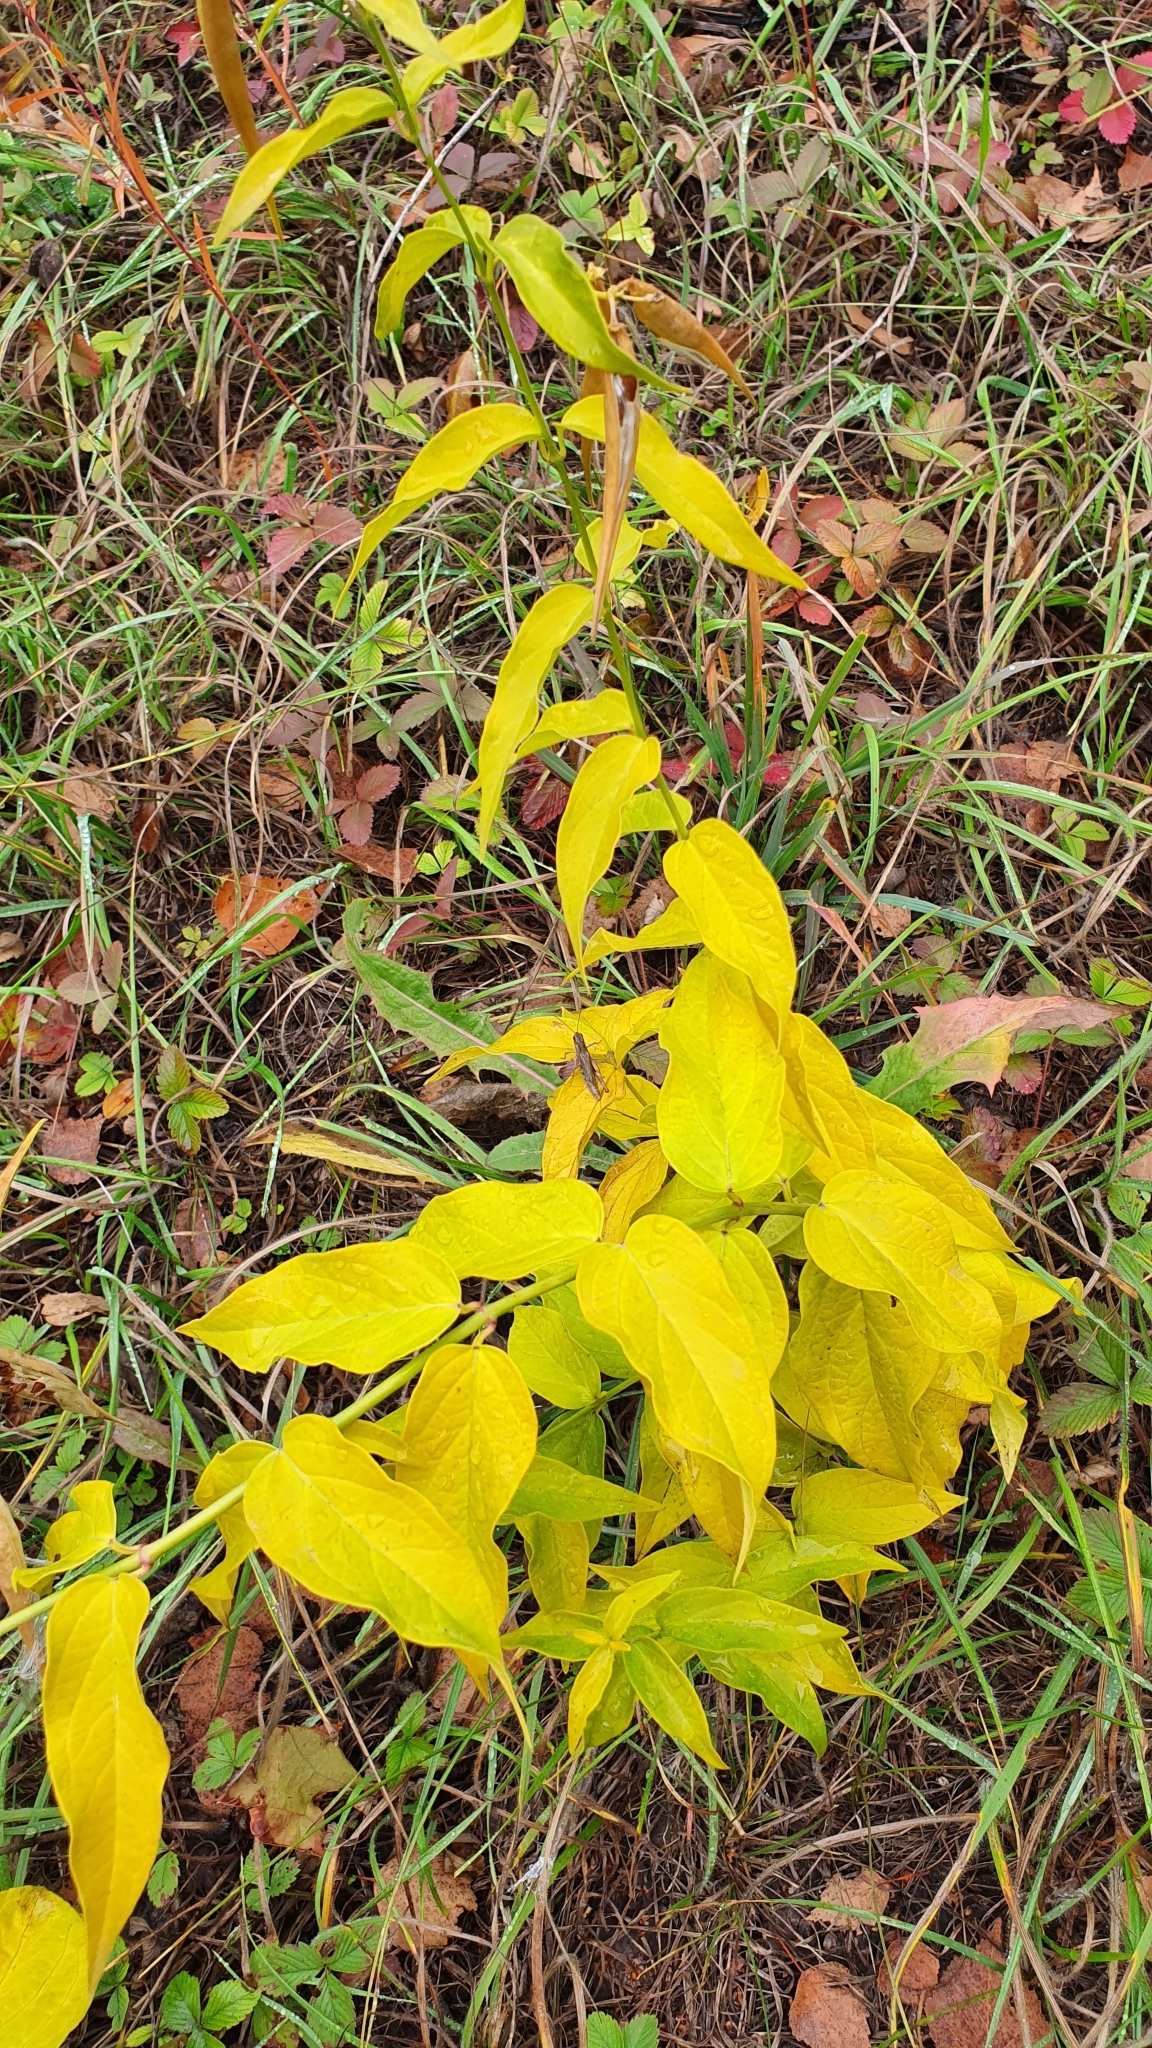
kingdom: Plantae
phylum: Tracheophyta
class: Magnoliopsida
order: Gentianales
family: Apocynaceae
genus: Vincetoxicum
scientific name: Vincetoxicum hirundinaria
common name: White swallowwort
